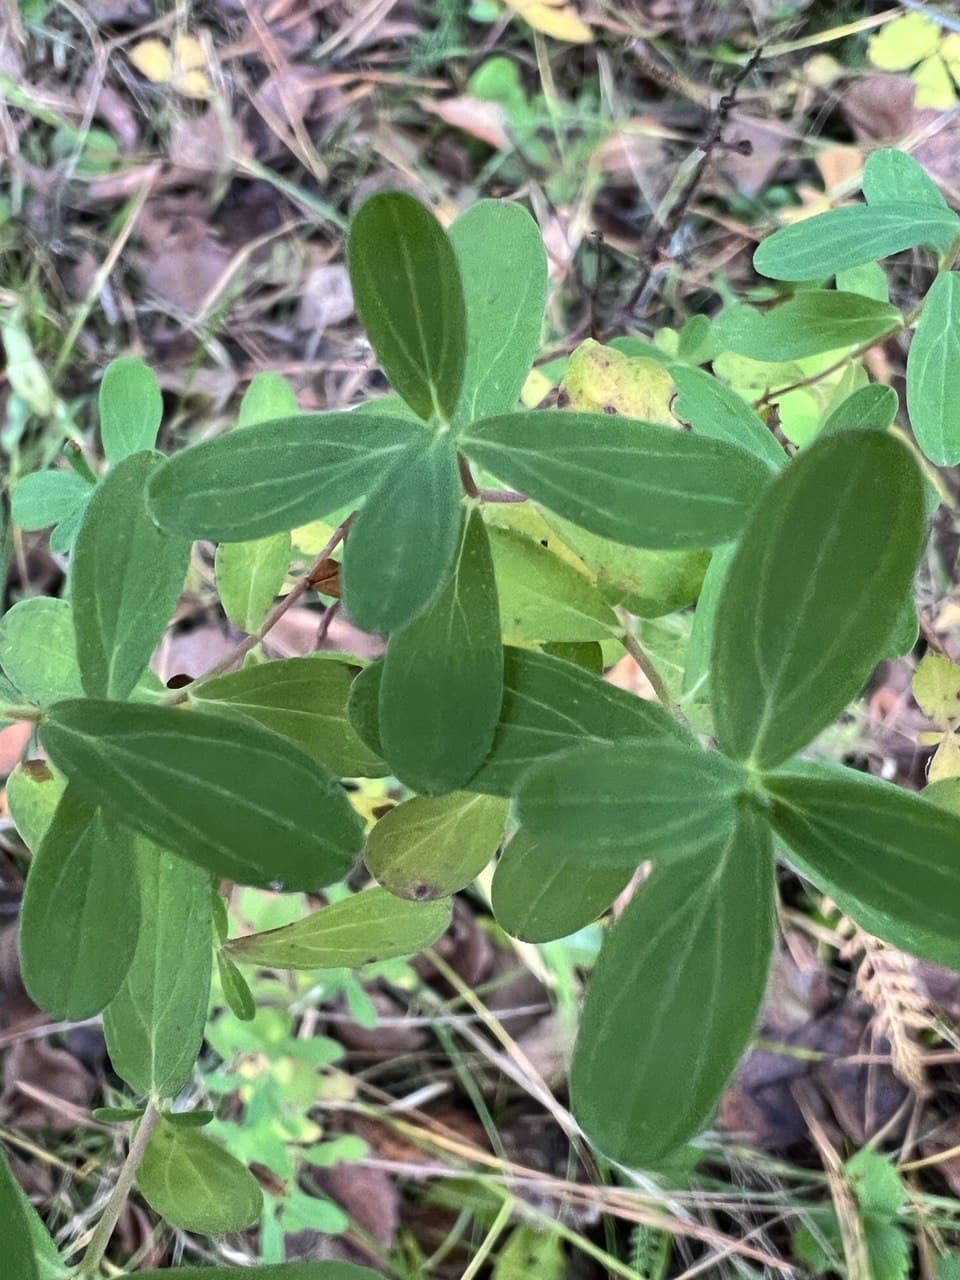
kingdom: Plantae
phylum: Tracheophyta
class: Magnoliopsida
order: Malpighiales
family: Hypericaceae
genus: Hypericum
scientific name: Hypericum perforatum
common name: Common st. johnswort
